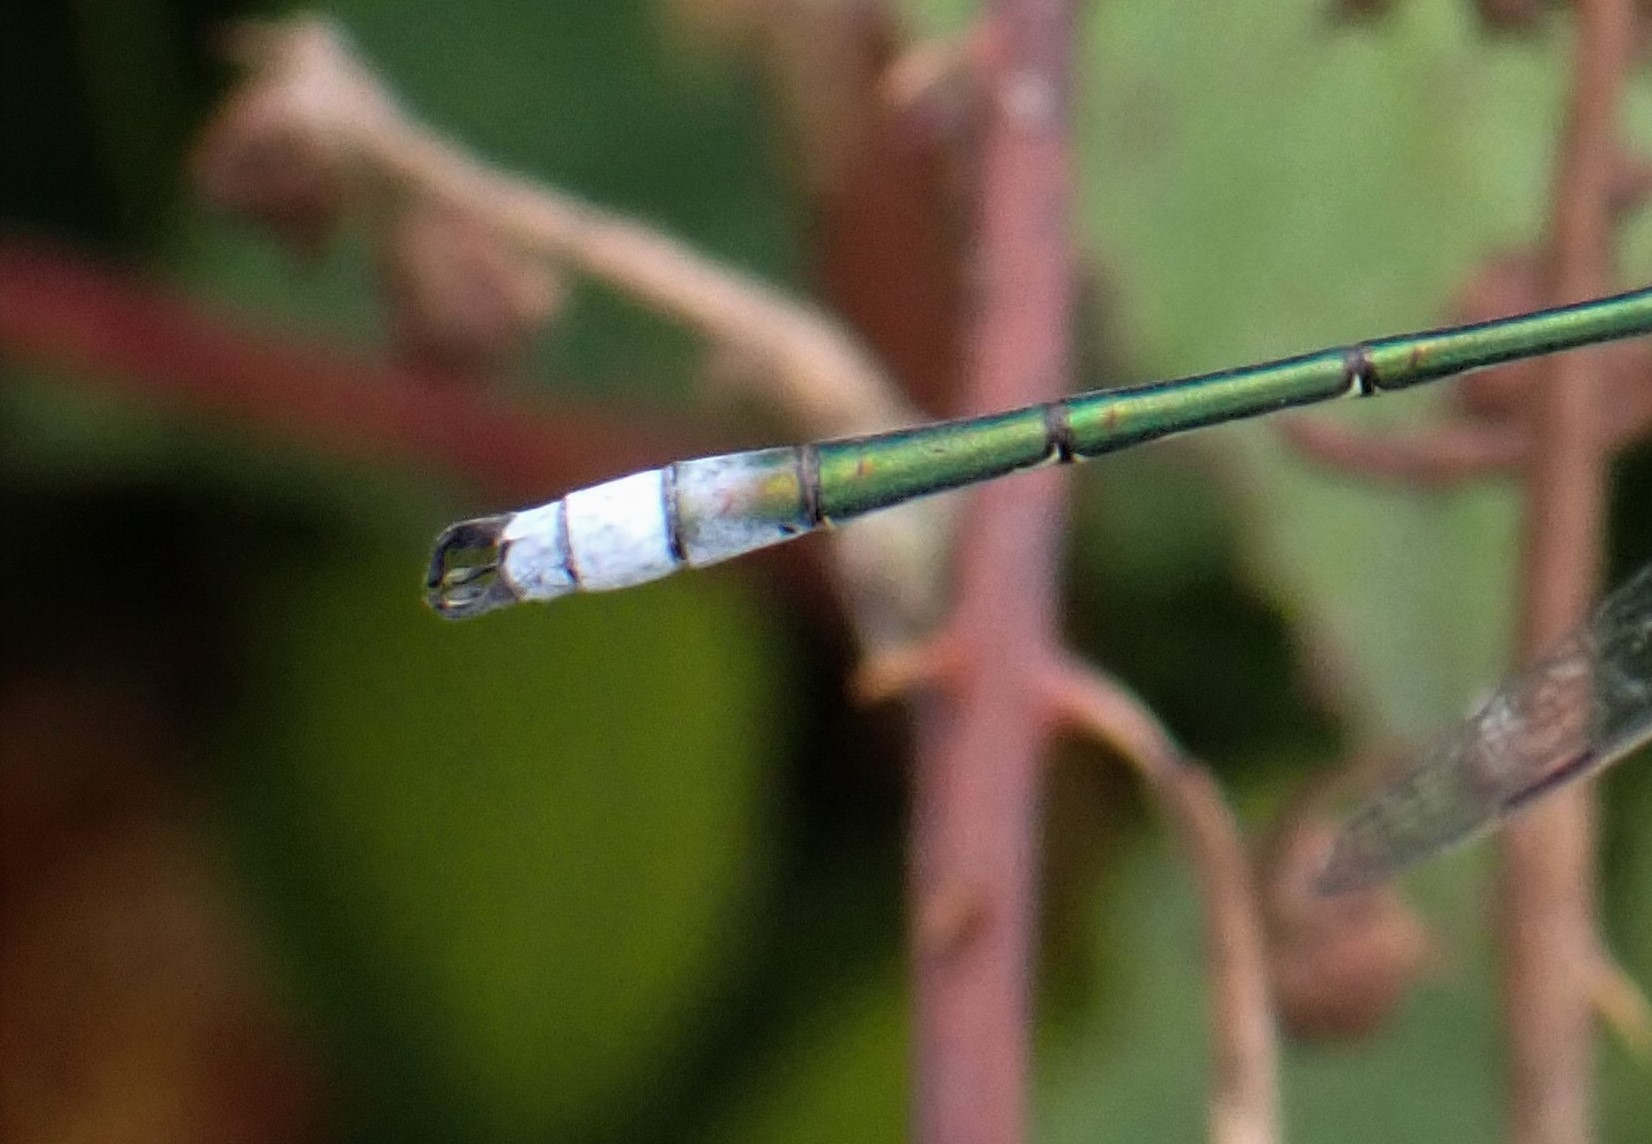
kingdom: Animalia
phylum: Arthropoda
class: Insecta
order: Odonata
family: Lestidae
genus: Lestes
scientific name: Lestes sponsa
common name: Common spreadwing
